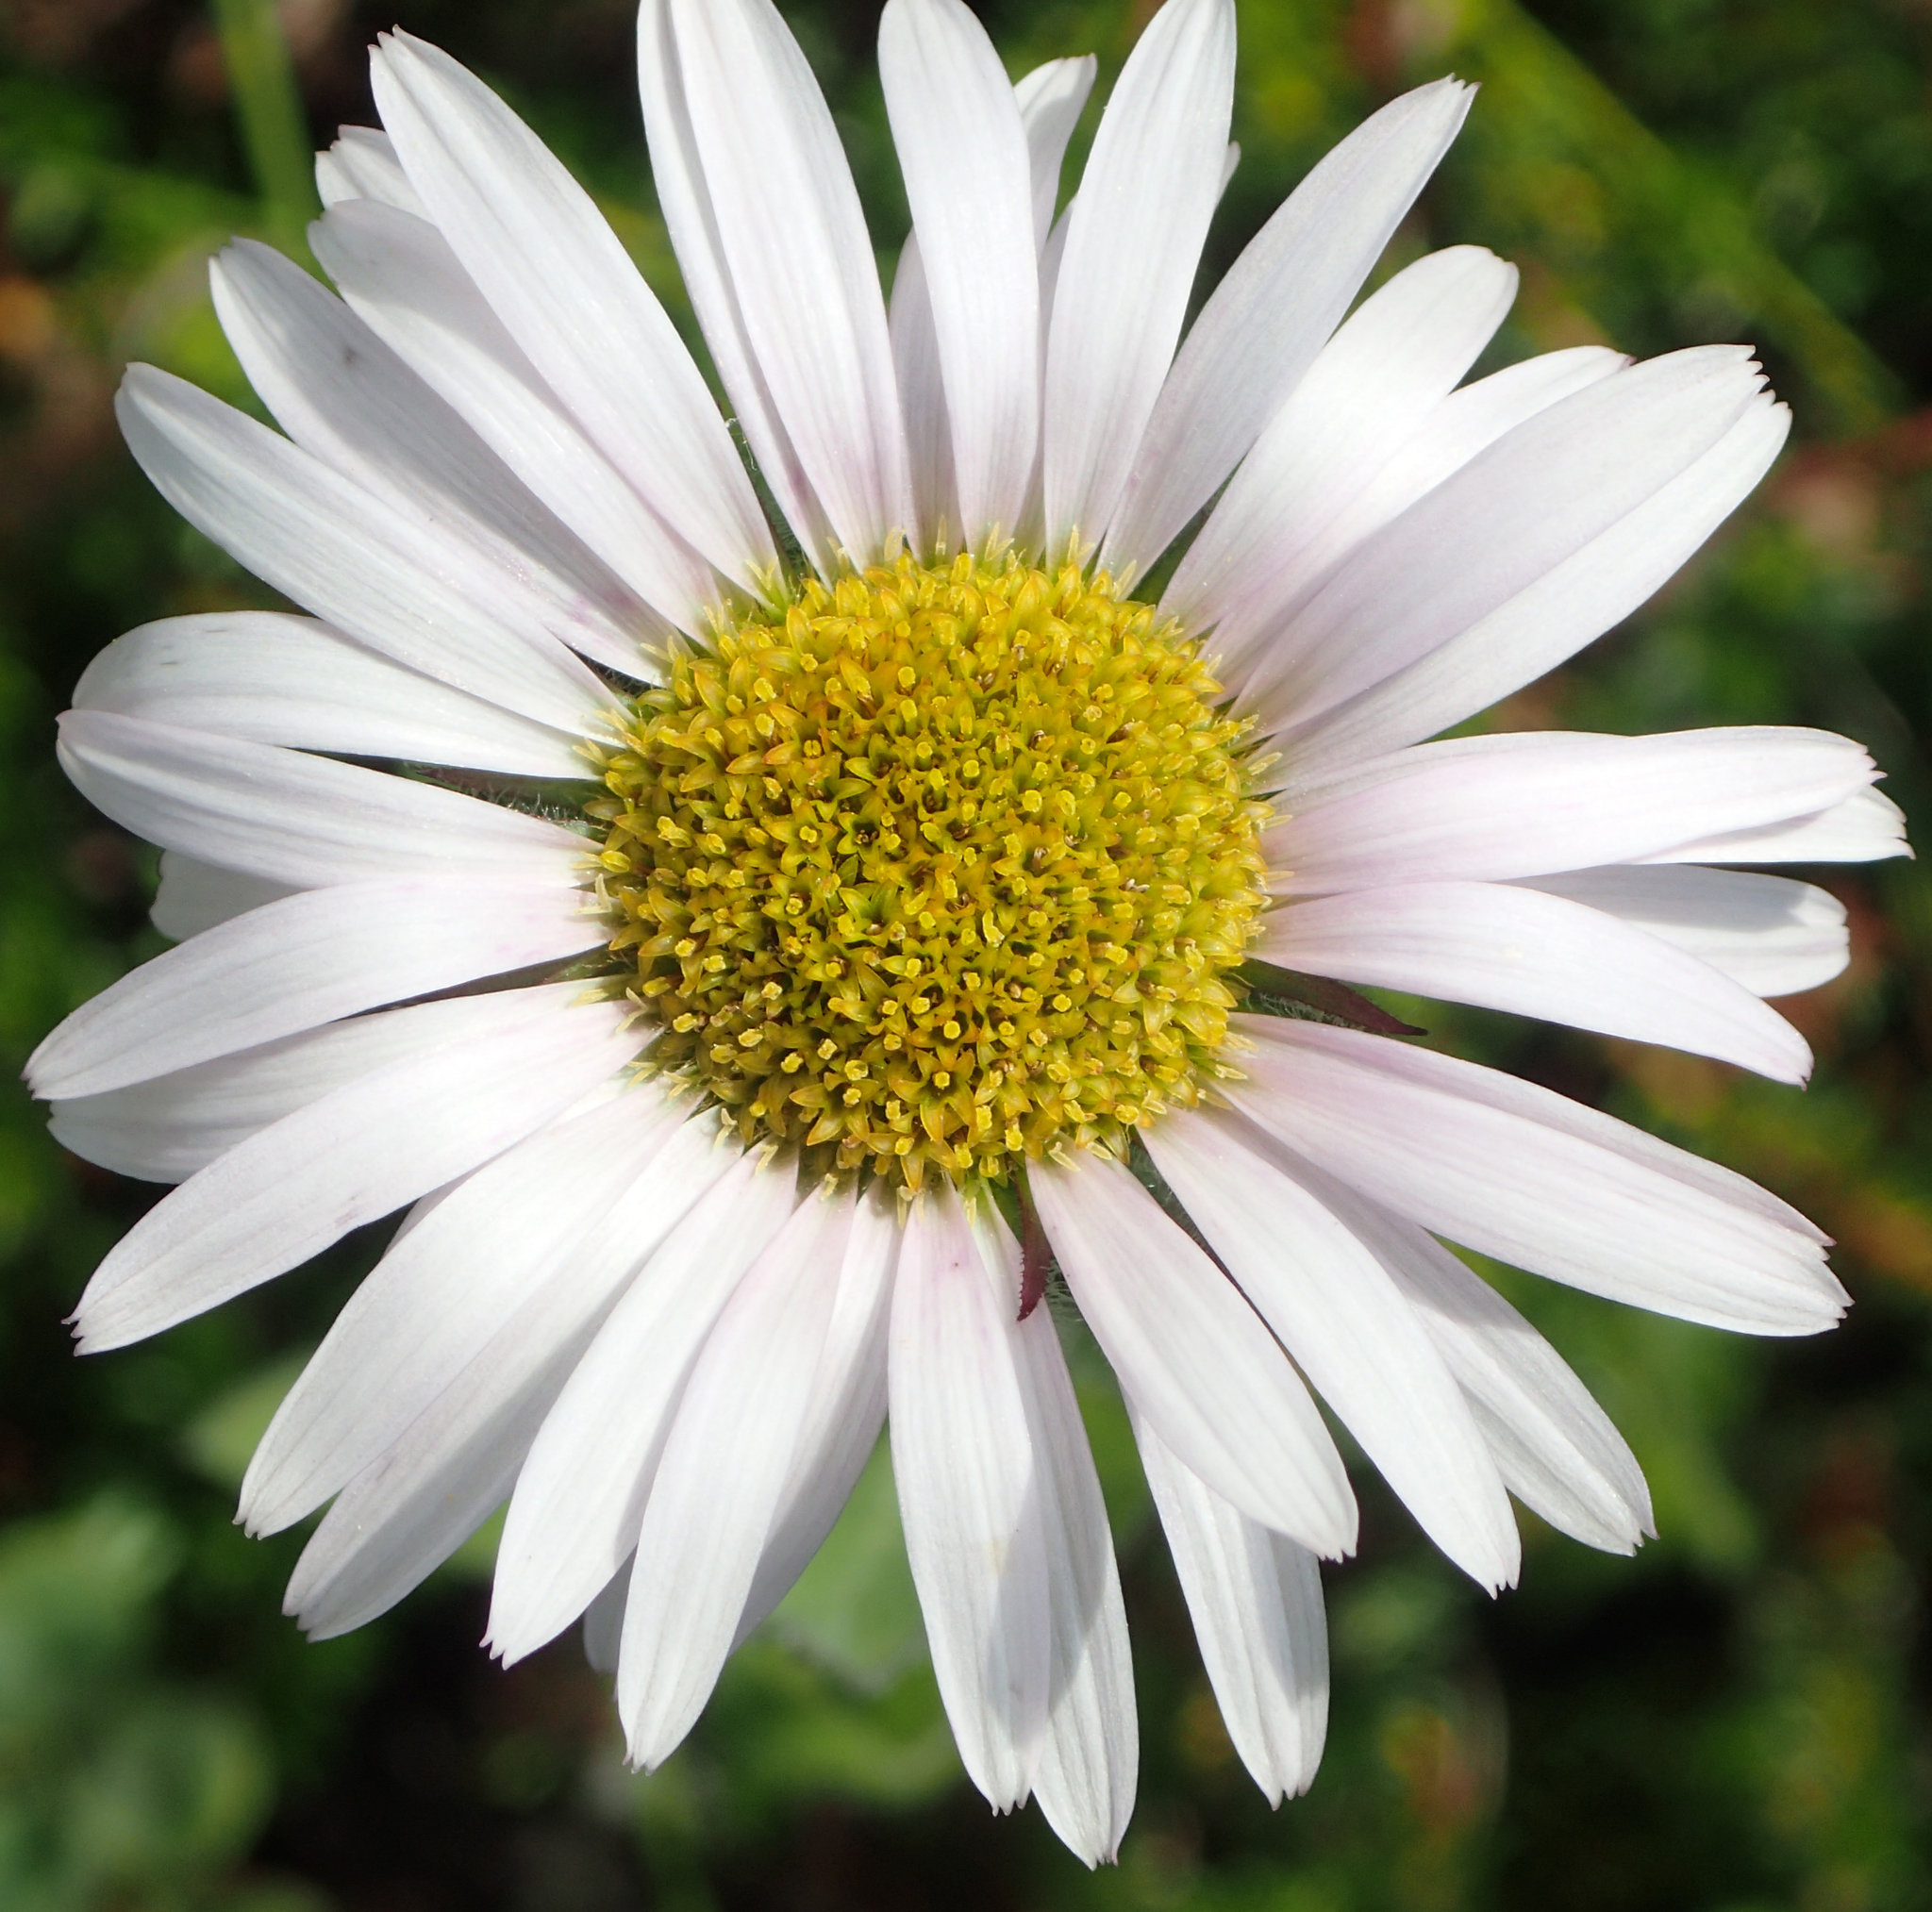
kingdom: Plantae
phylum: Tracheophyta
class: Magnoliopsida
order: Asterales
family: Asteraceae
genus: Leucanthemum
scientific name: Leucanthemum vulgare
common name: Oxeye daisy
